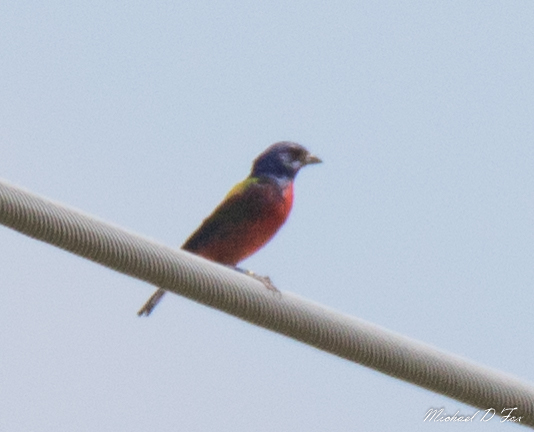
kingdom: Animalia
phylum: Chordata
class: Aves
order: Passeriformes
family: Cardinalidae
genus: Passerina
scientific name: Passerina ciris
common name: Painted bunting
